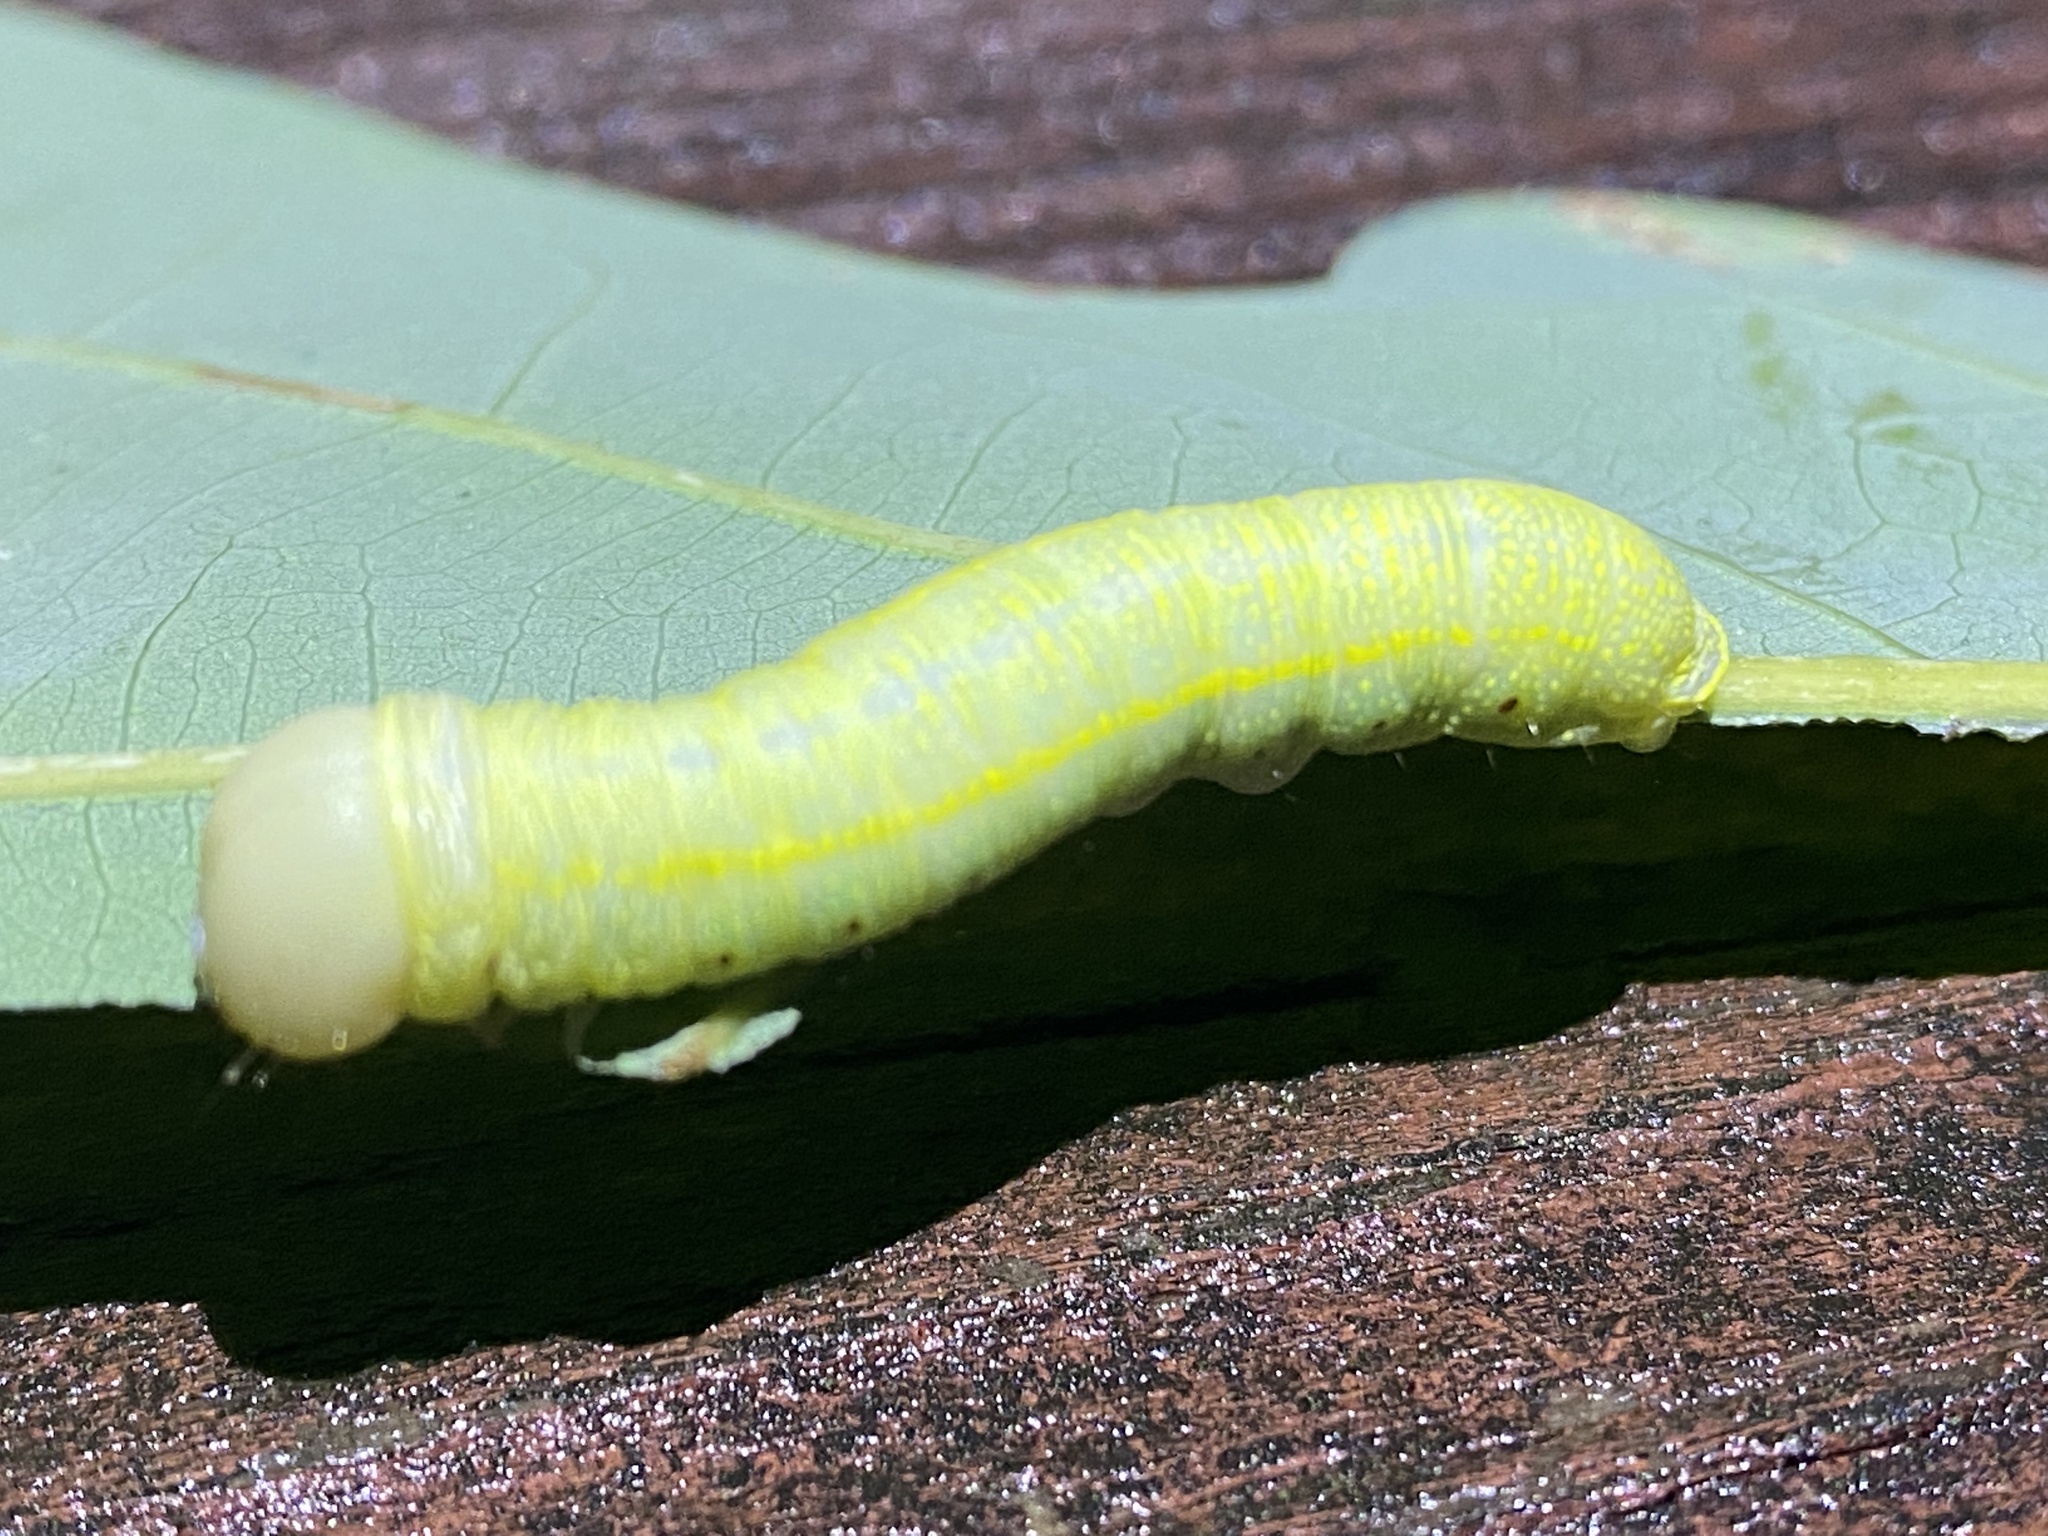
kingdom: Animalia
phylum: Arthropoda
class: Insecta
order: Lepidoptera
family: Notodontidae
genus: Nadata
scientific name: Nadata gibbosa
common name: White-dotted prominent
